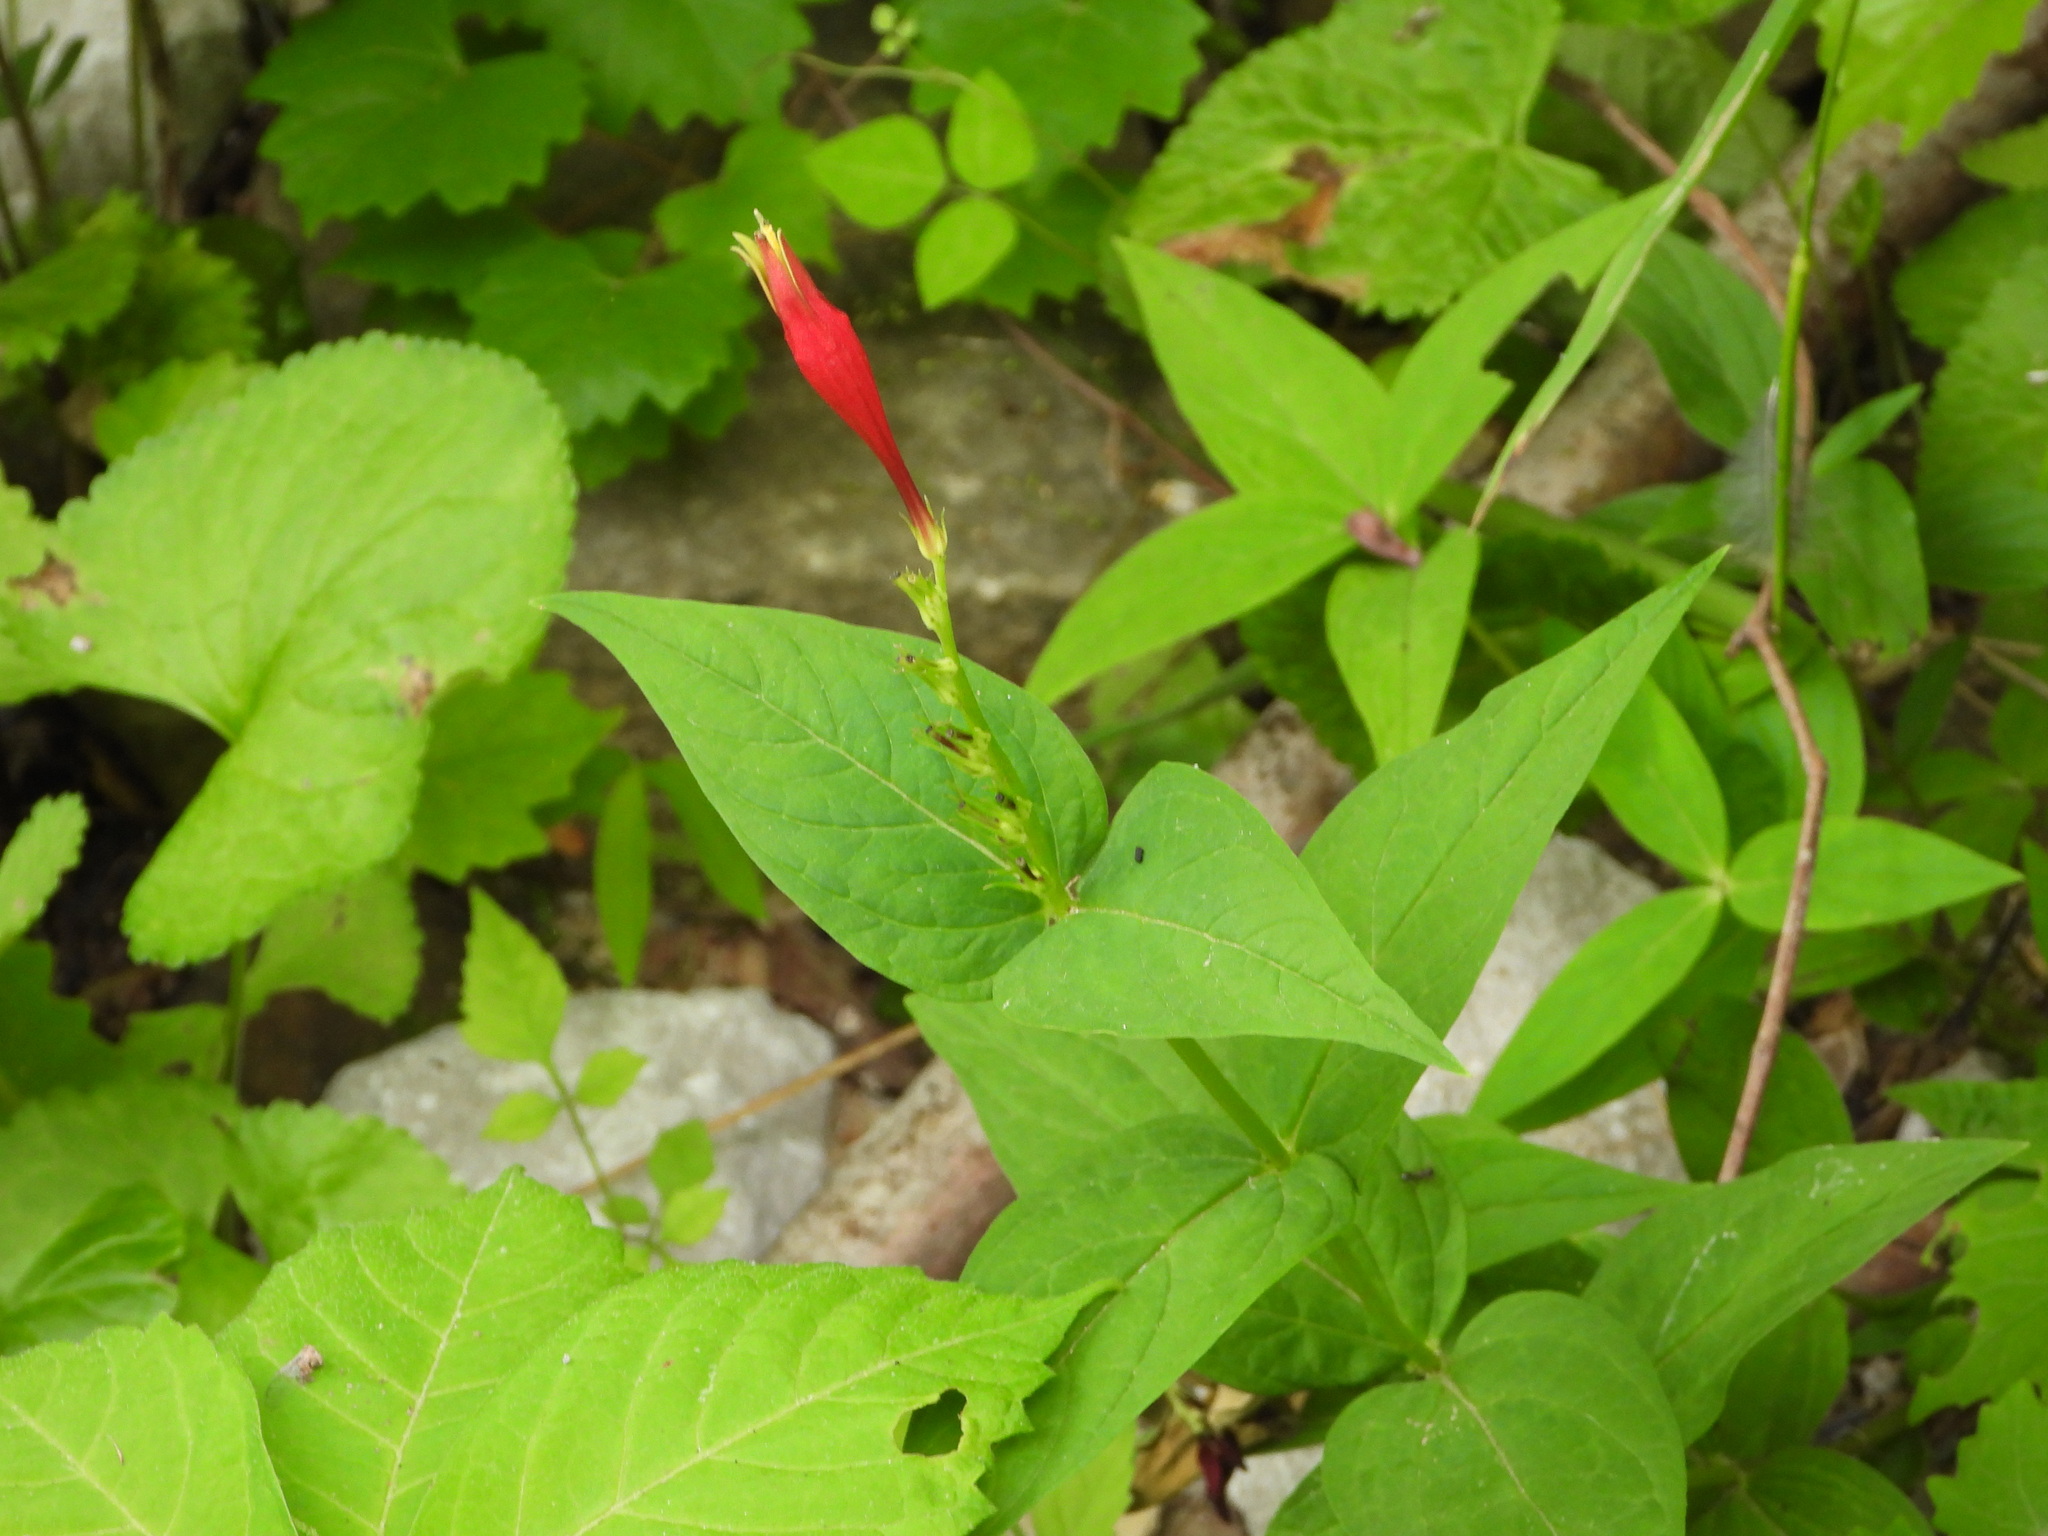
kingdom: Plantae
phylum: Tracheophyta
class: Magnoliopsida
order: Gentianales
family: Loganiaceae
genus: Spigelia
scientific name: Spigelia marilandica
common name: Indian-pink
